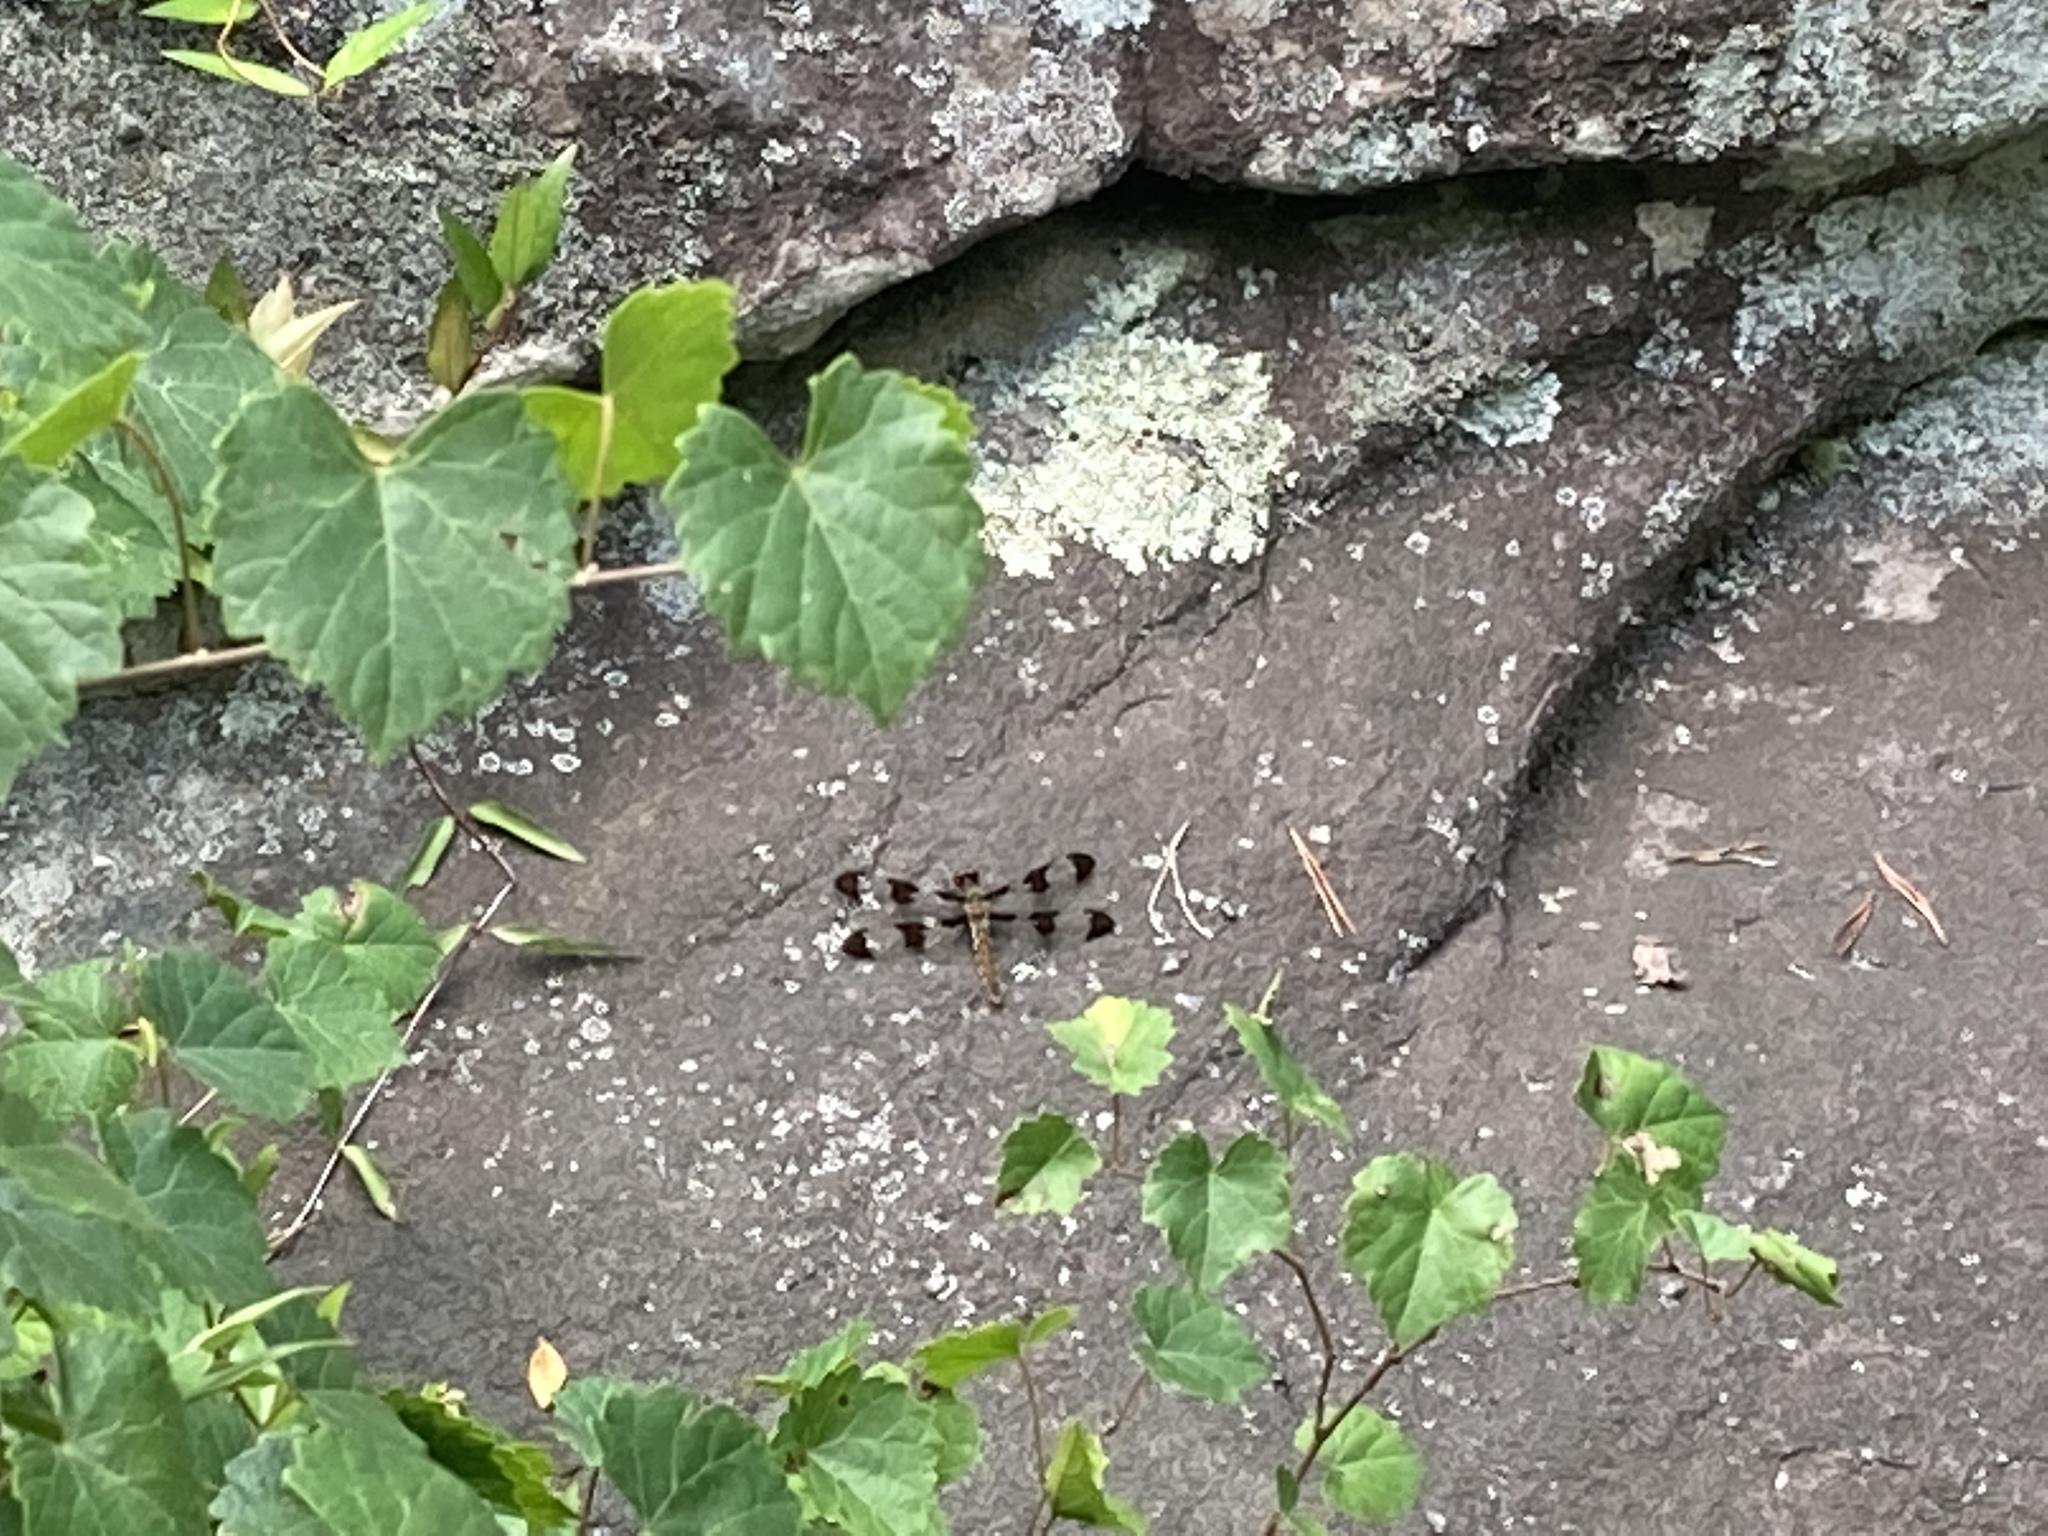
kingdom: Animalia
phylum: Arthropoda
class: Insecta
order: Odonata
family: Libellulidae
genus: Plathemis
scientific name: Plathemis lydia
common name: Common whitetail
